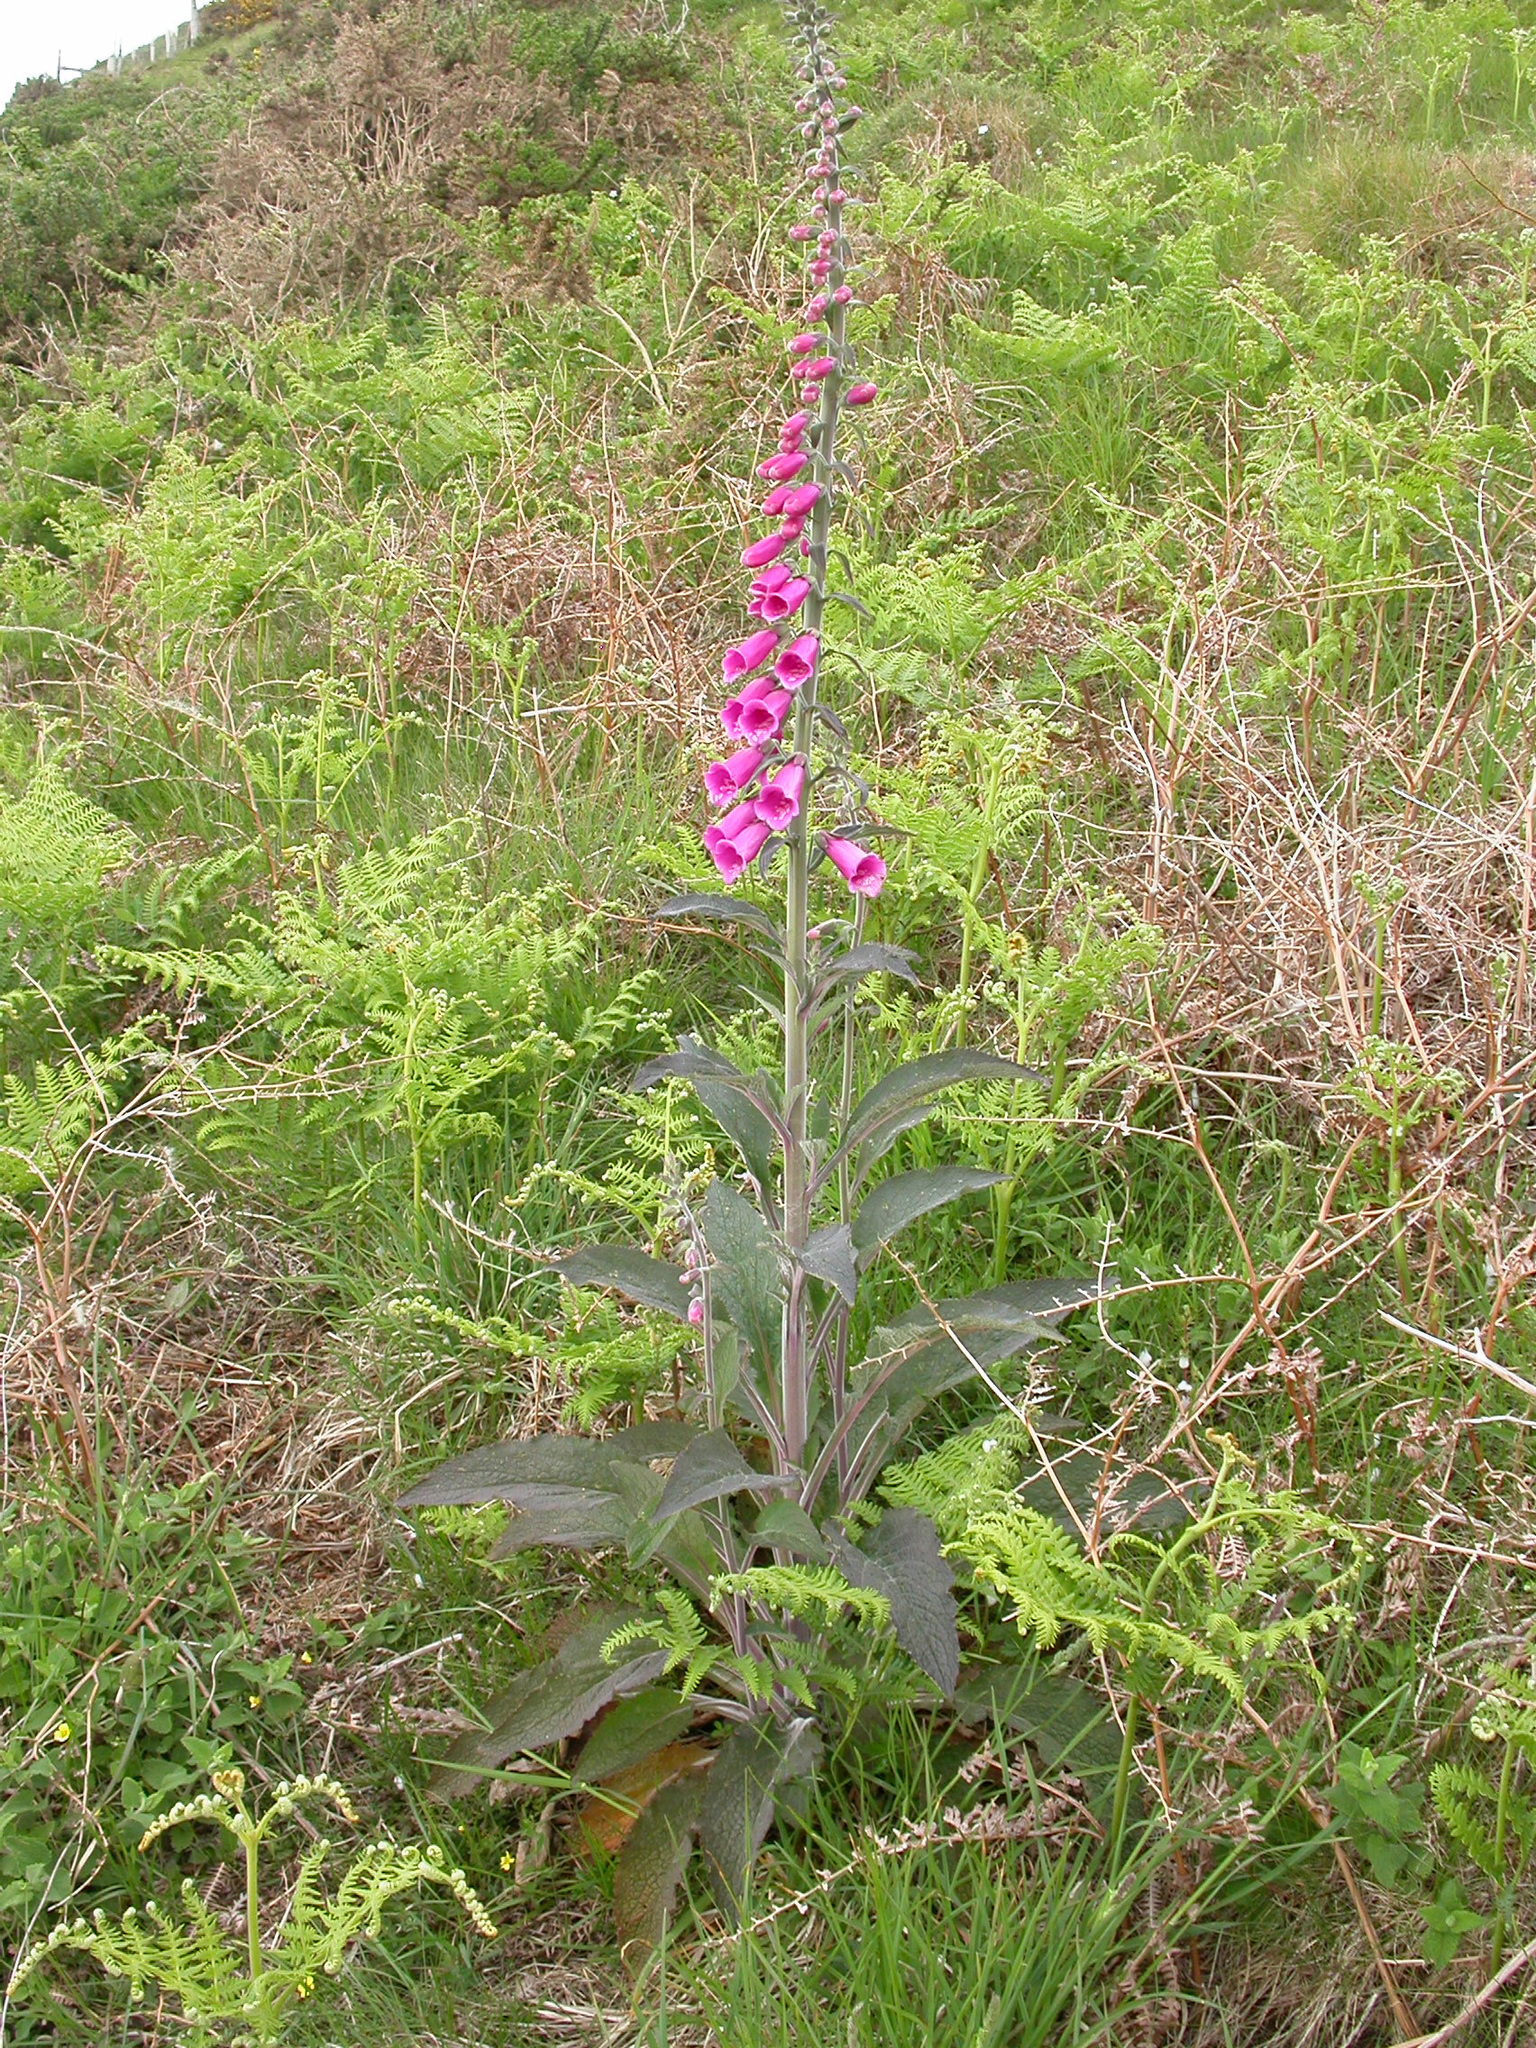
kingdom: Plantae
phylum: Tracheophyta
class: Magnoliopsida
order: Lamiales
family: Plantaginaceae
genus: Digitalis
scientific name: Digitalis purpurea
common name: Foxglove
